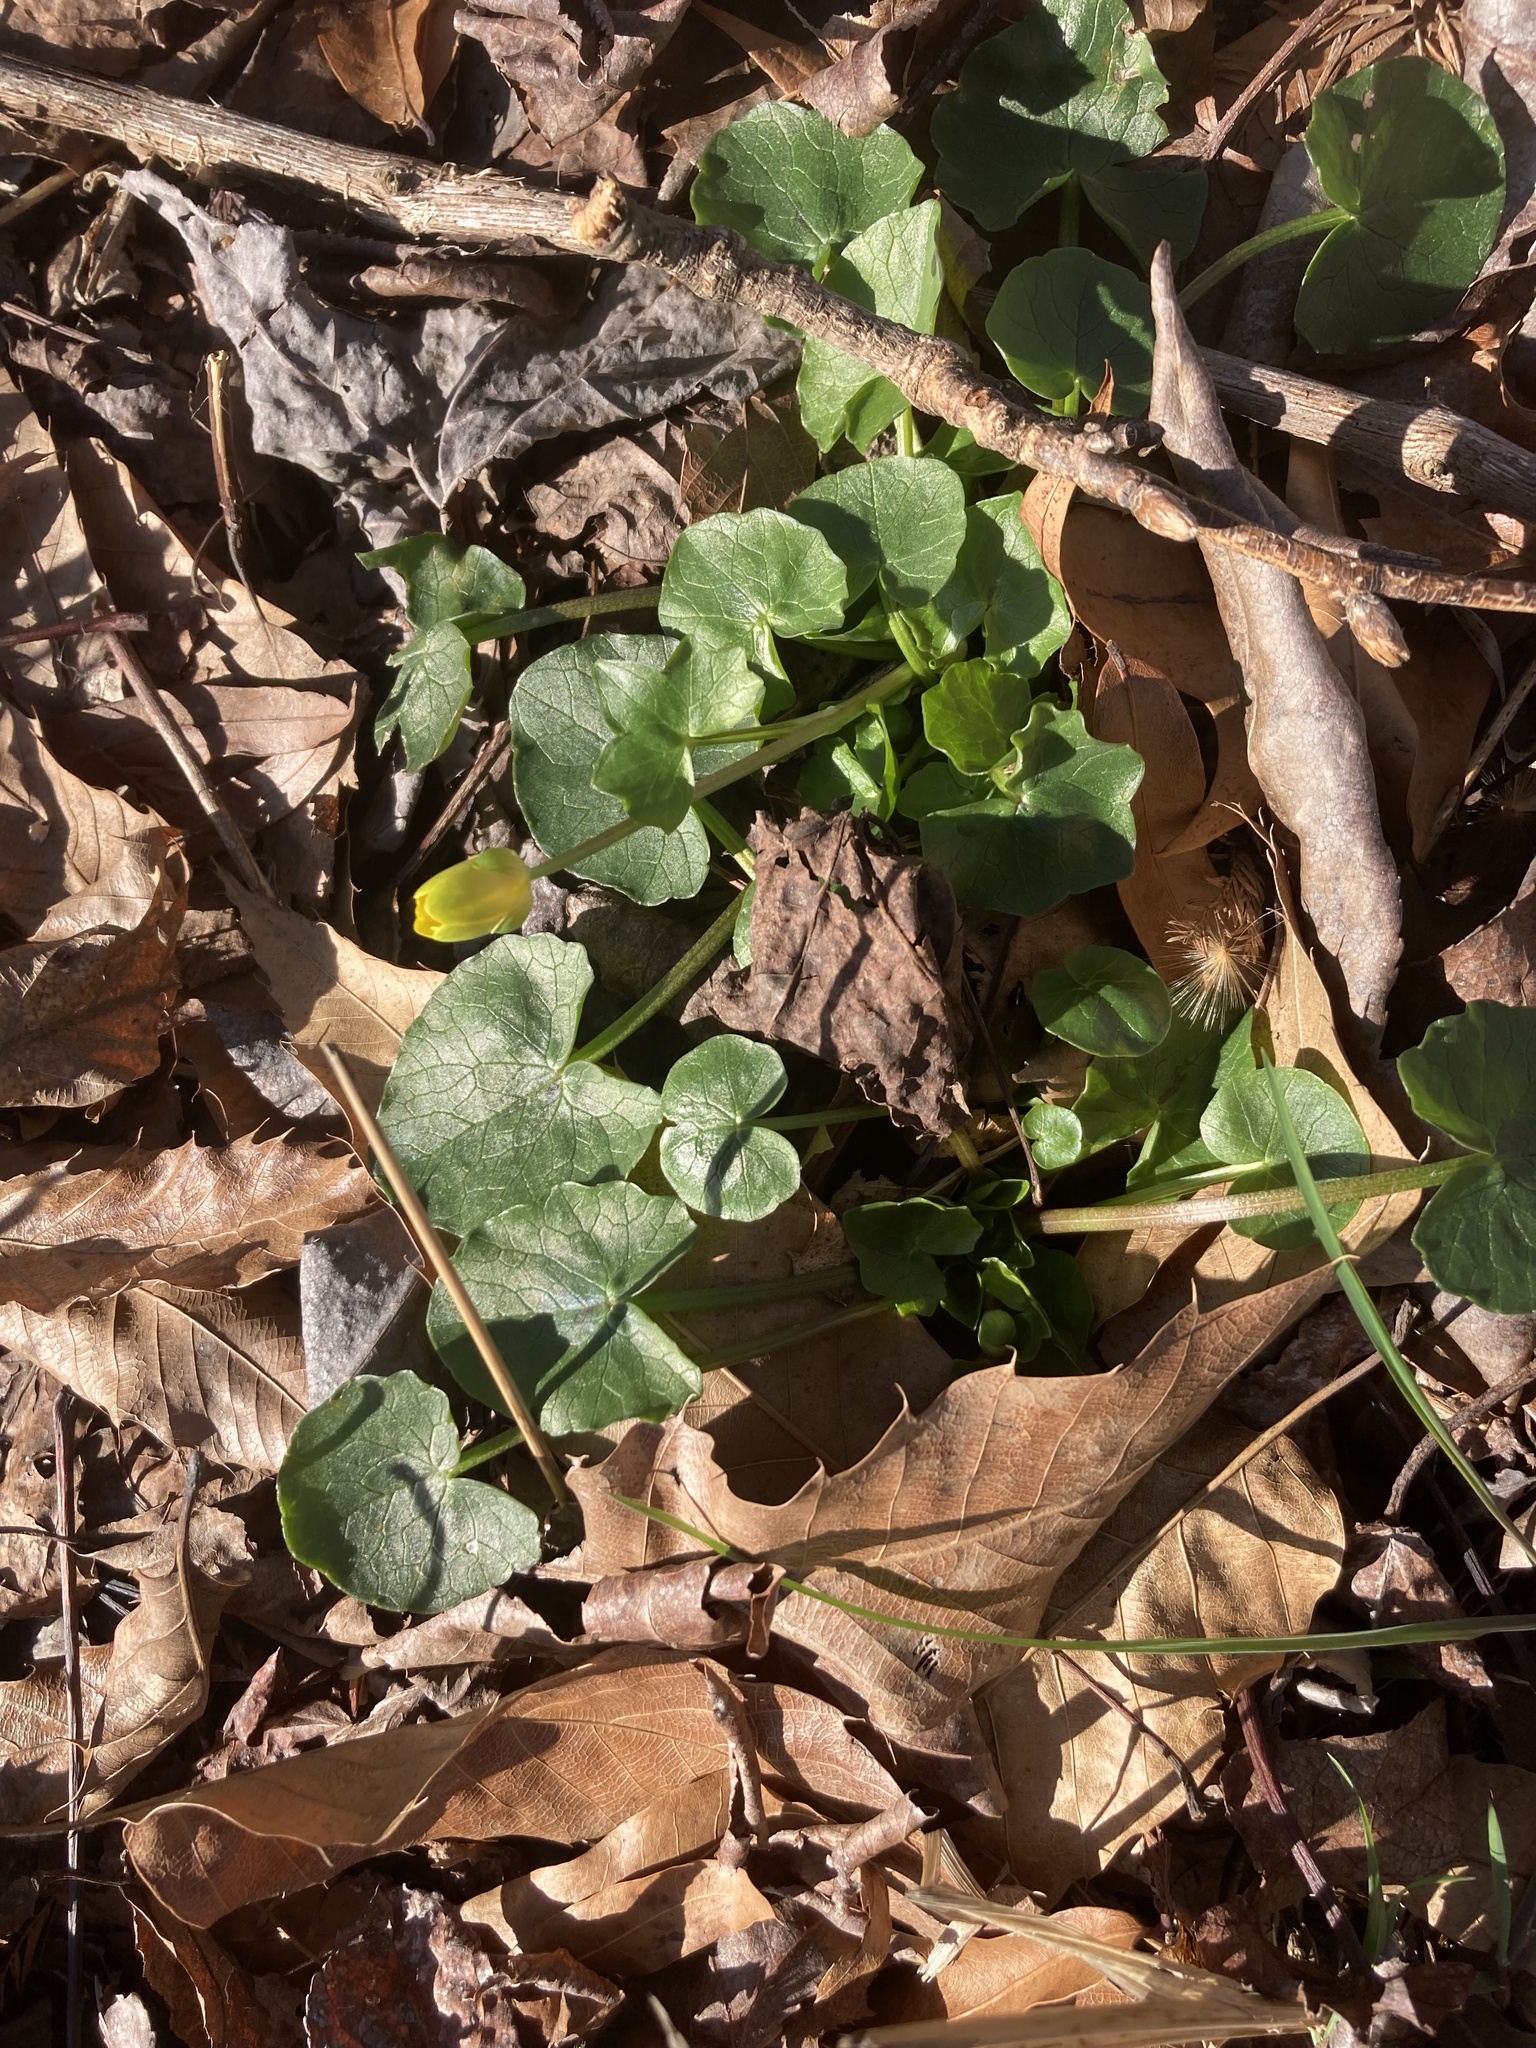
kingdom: Plantae
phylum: Tracheophyta
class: Magnoliopsida
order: Ranunculales
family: Ranunculaceae
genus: Ficaria
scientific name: Ficaria verna
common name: Lesser celandine
